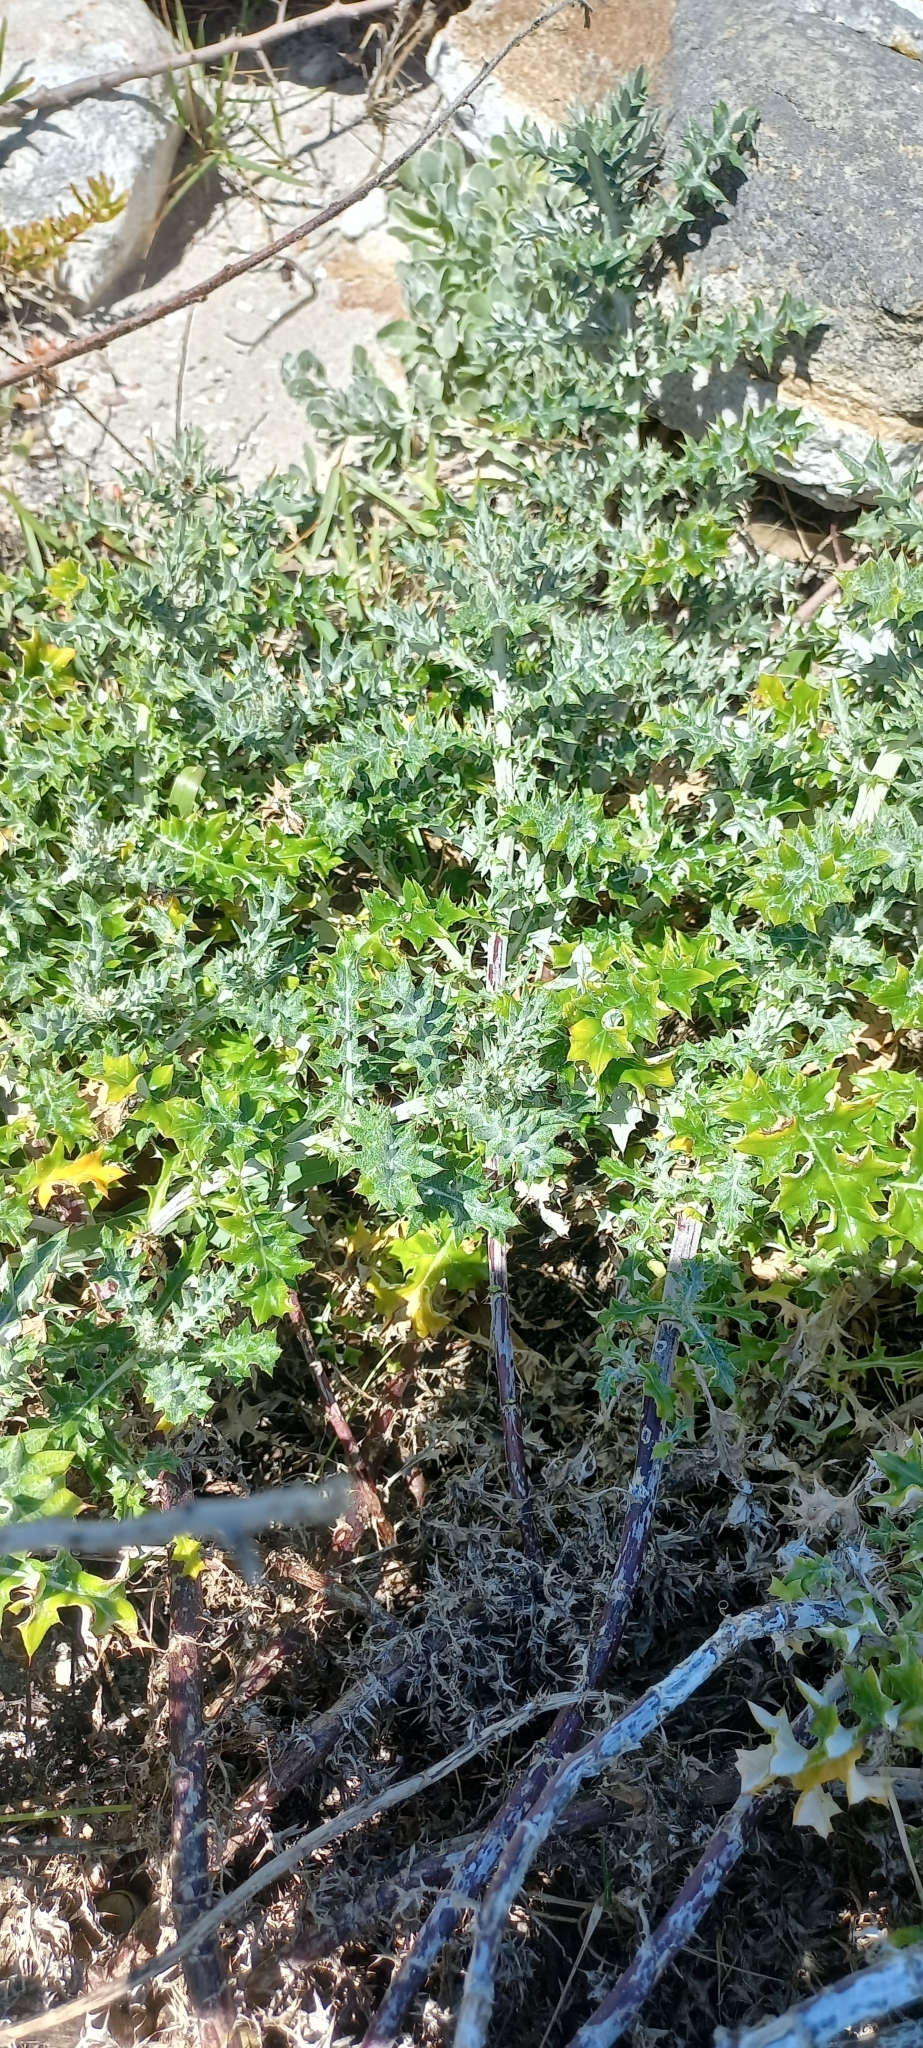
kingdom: Plantae
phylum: Tracheophyta
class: Magnoliopsida
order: Asterales
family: Asteraceae
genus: Berkheya
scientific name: Berkheya rigida
